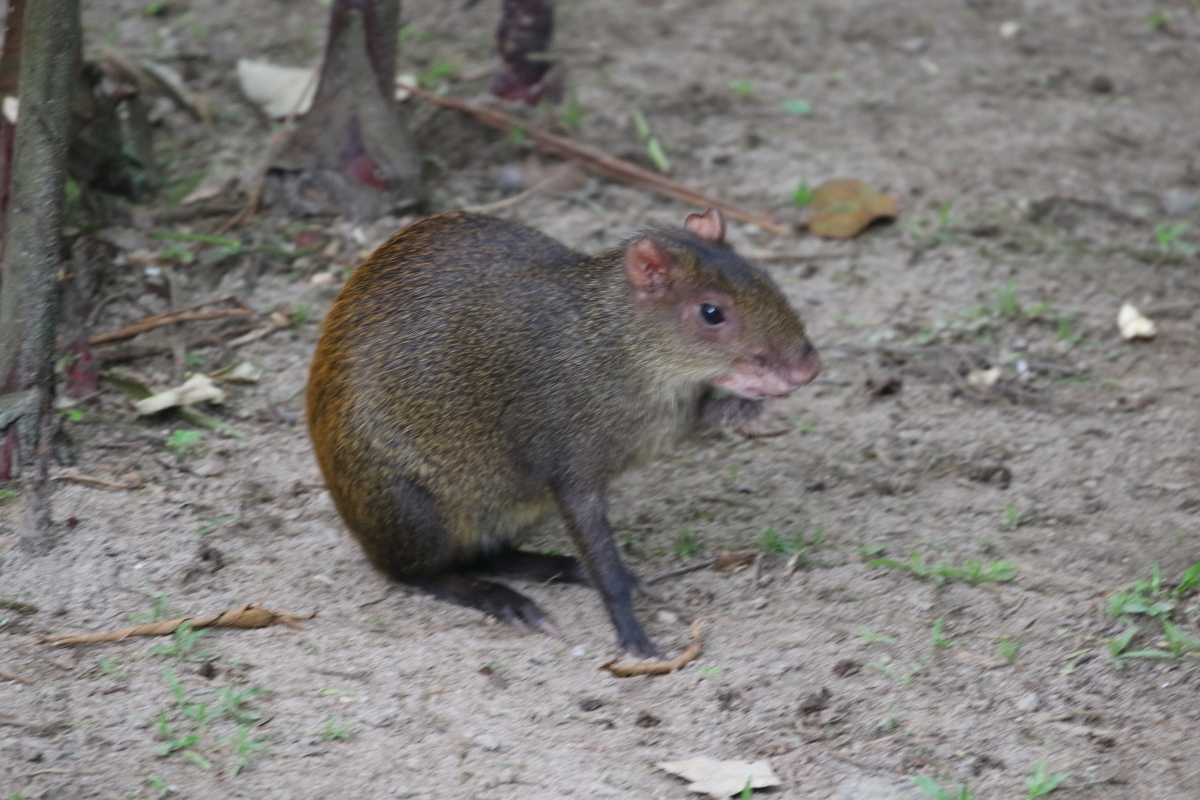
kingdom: Animalia
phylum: Chordata
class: Mammalia
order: Rodentia
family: Dasyproctidae
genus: Dasyprocta
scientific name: Dasyprocta punctata
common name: Central american agouti
